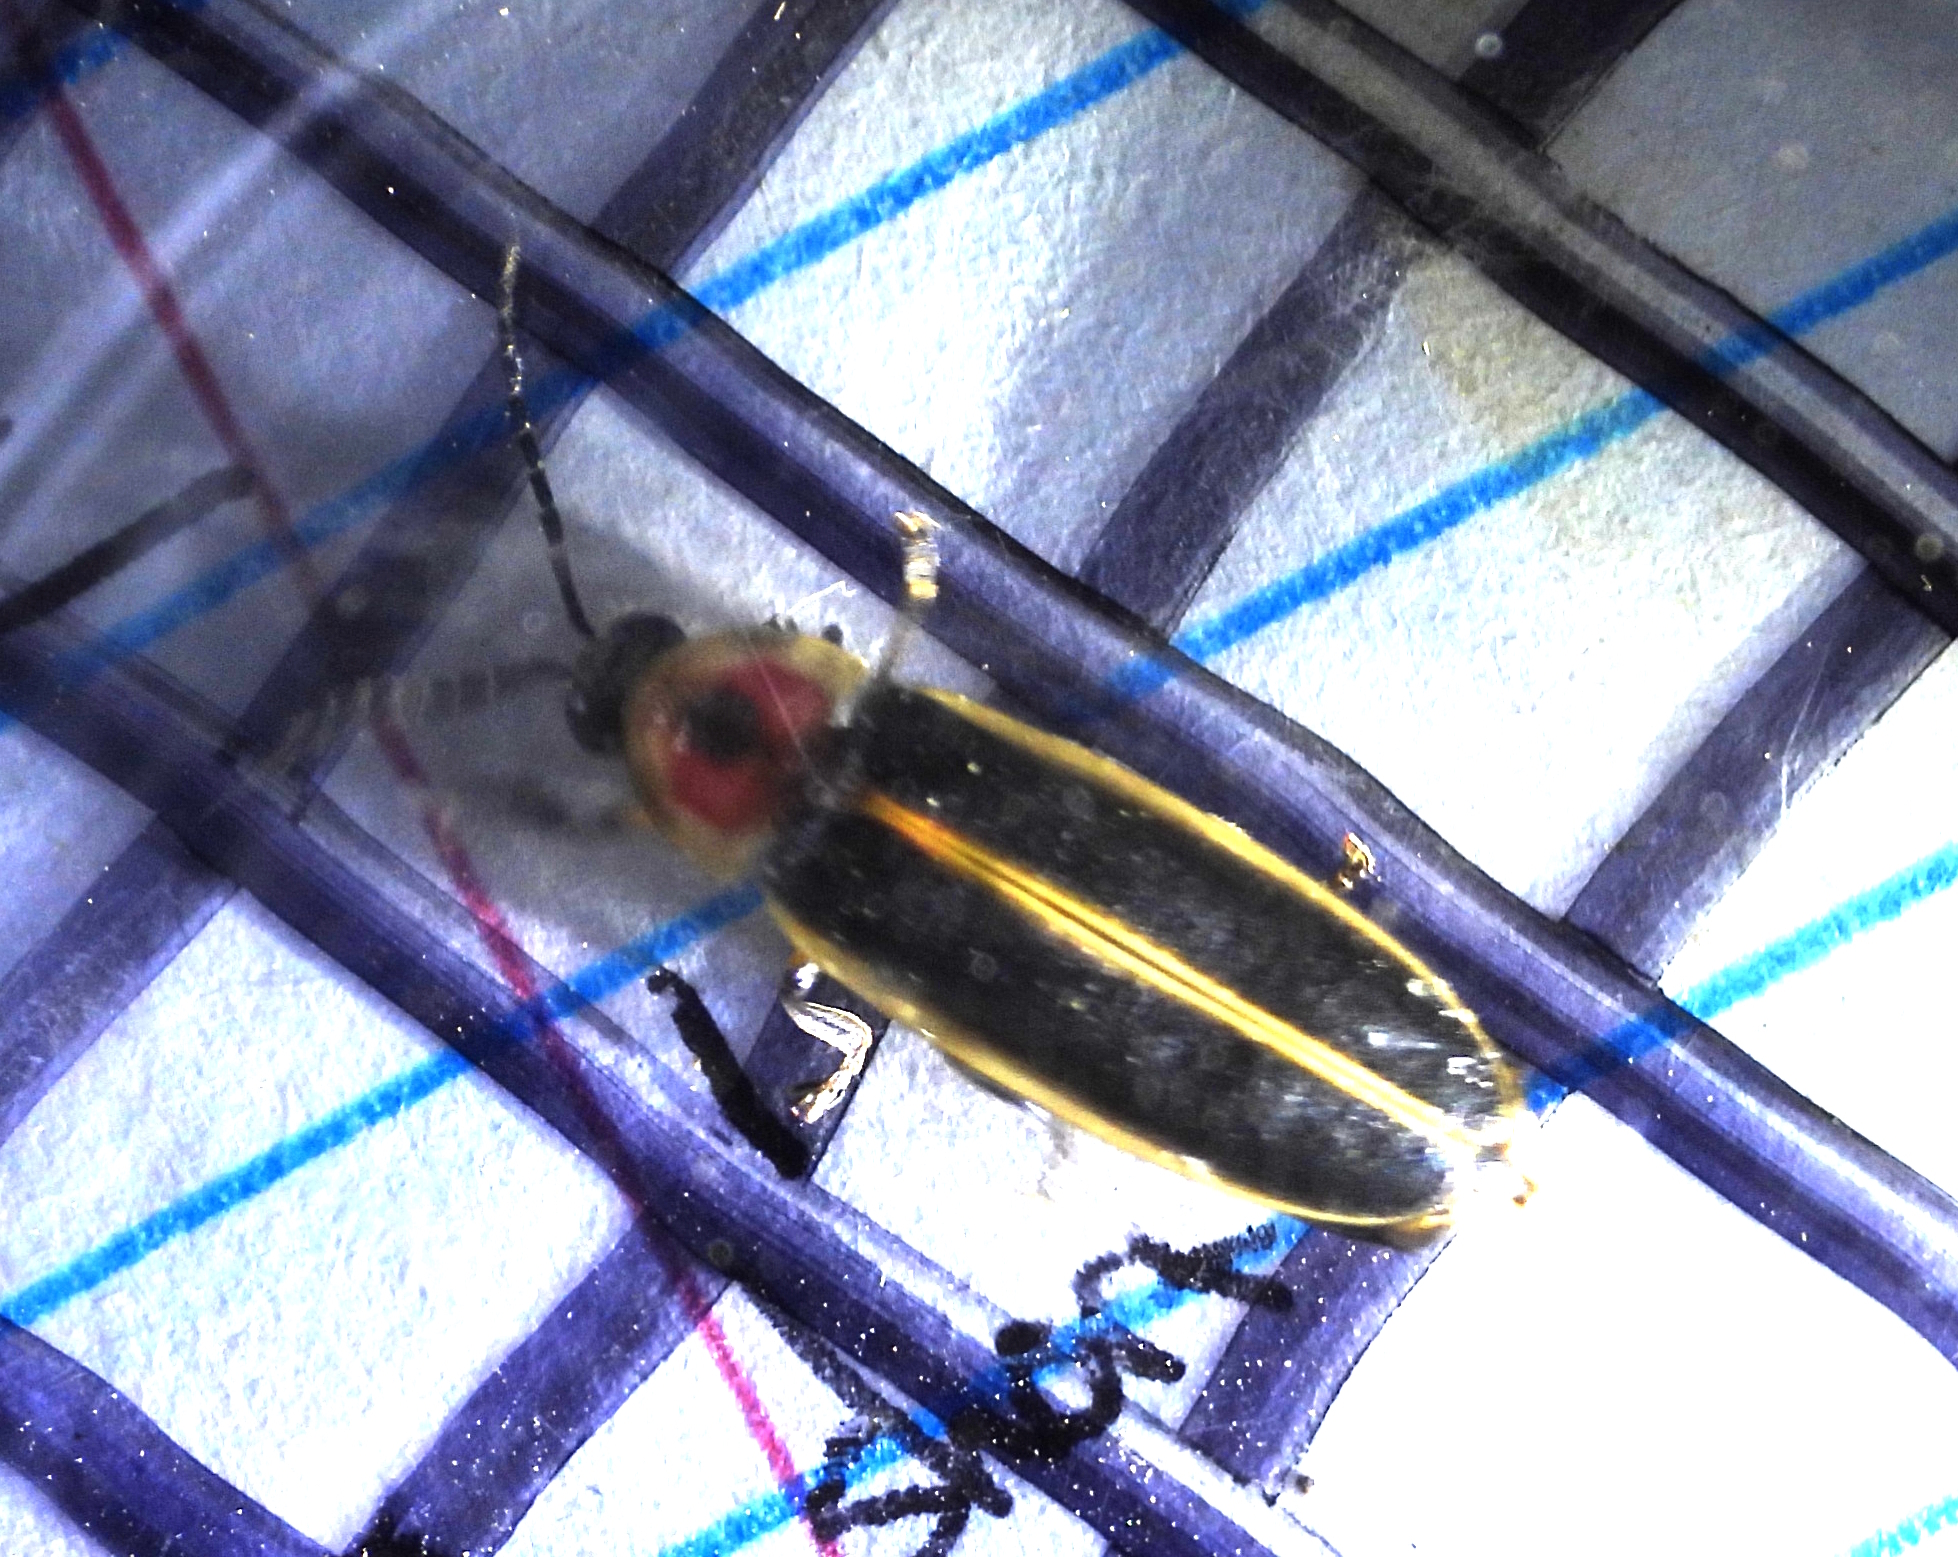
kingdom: Animalia
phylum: Arthropoda
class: Insecta
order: Coleoptera
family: Lampyridae
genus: Photinus
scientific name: Photinus pyralis
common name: Big dipper firefly
